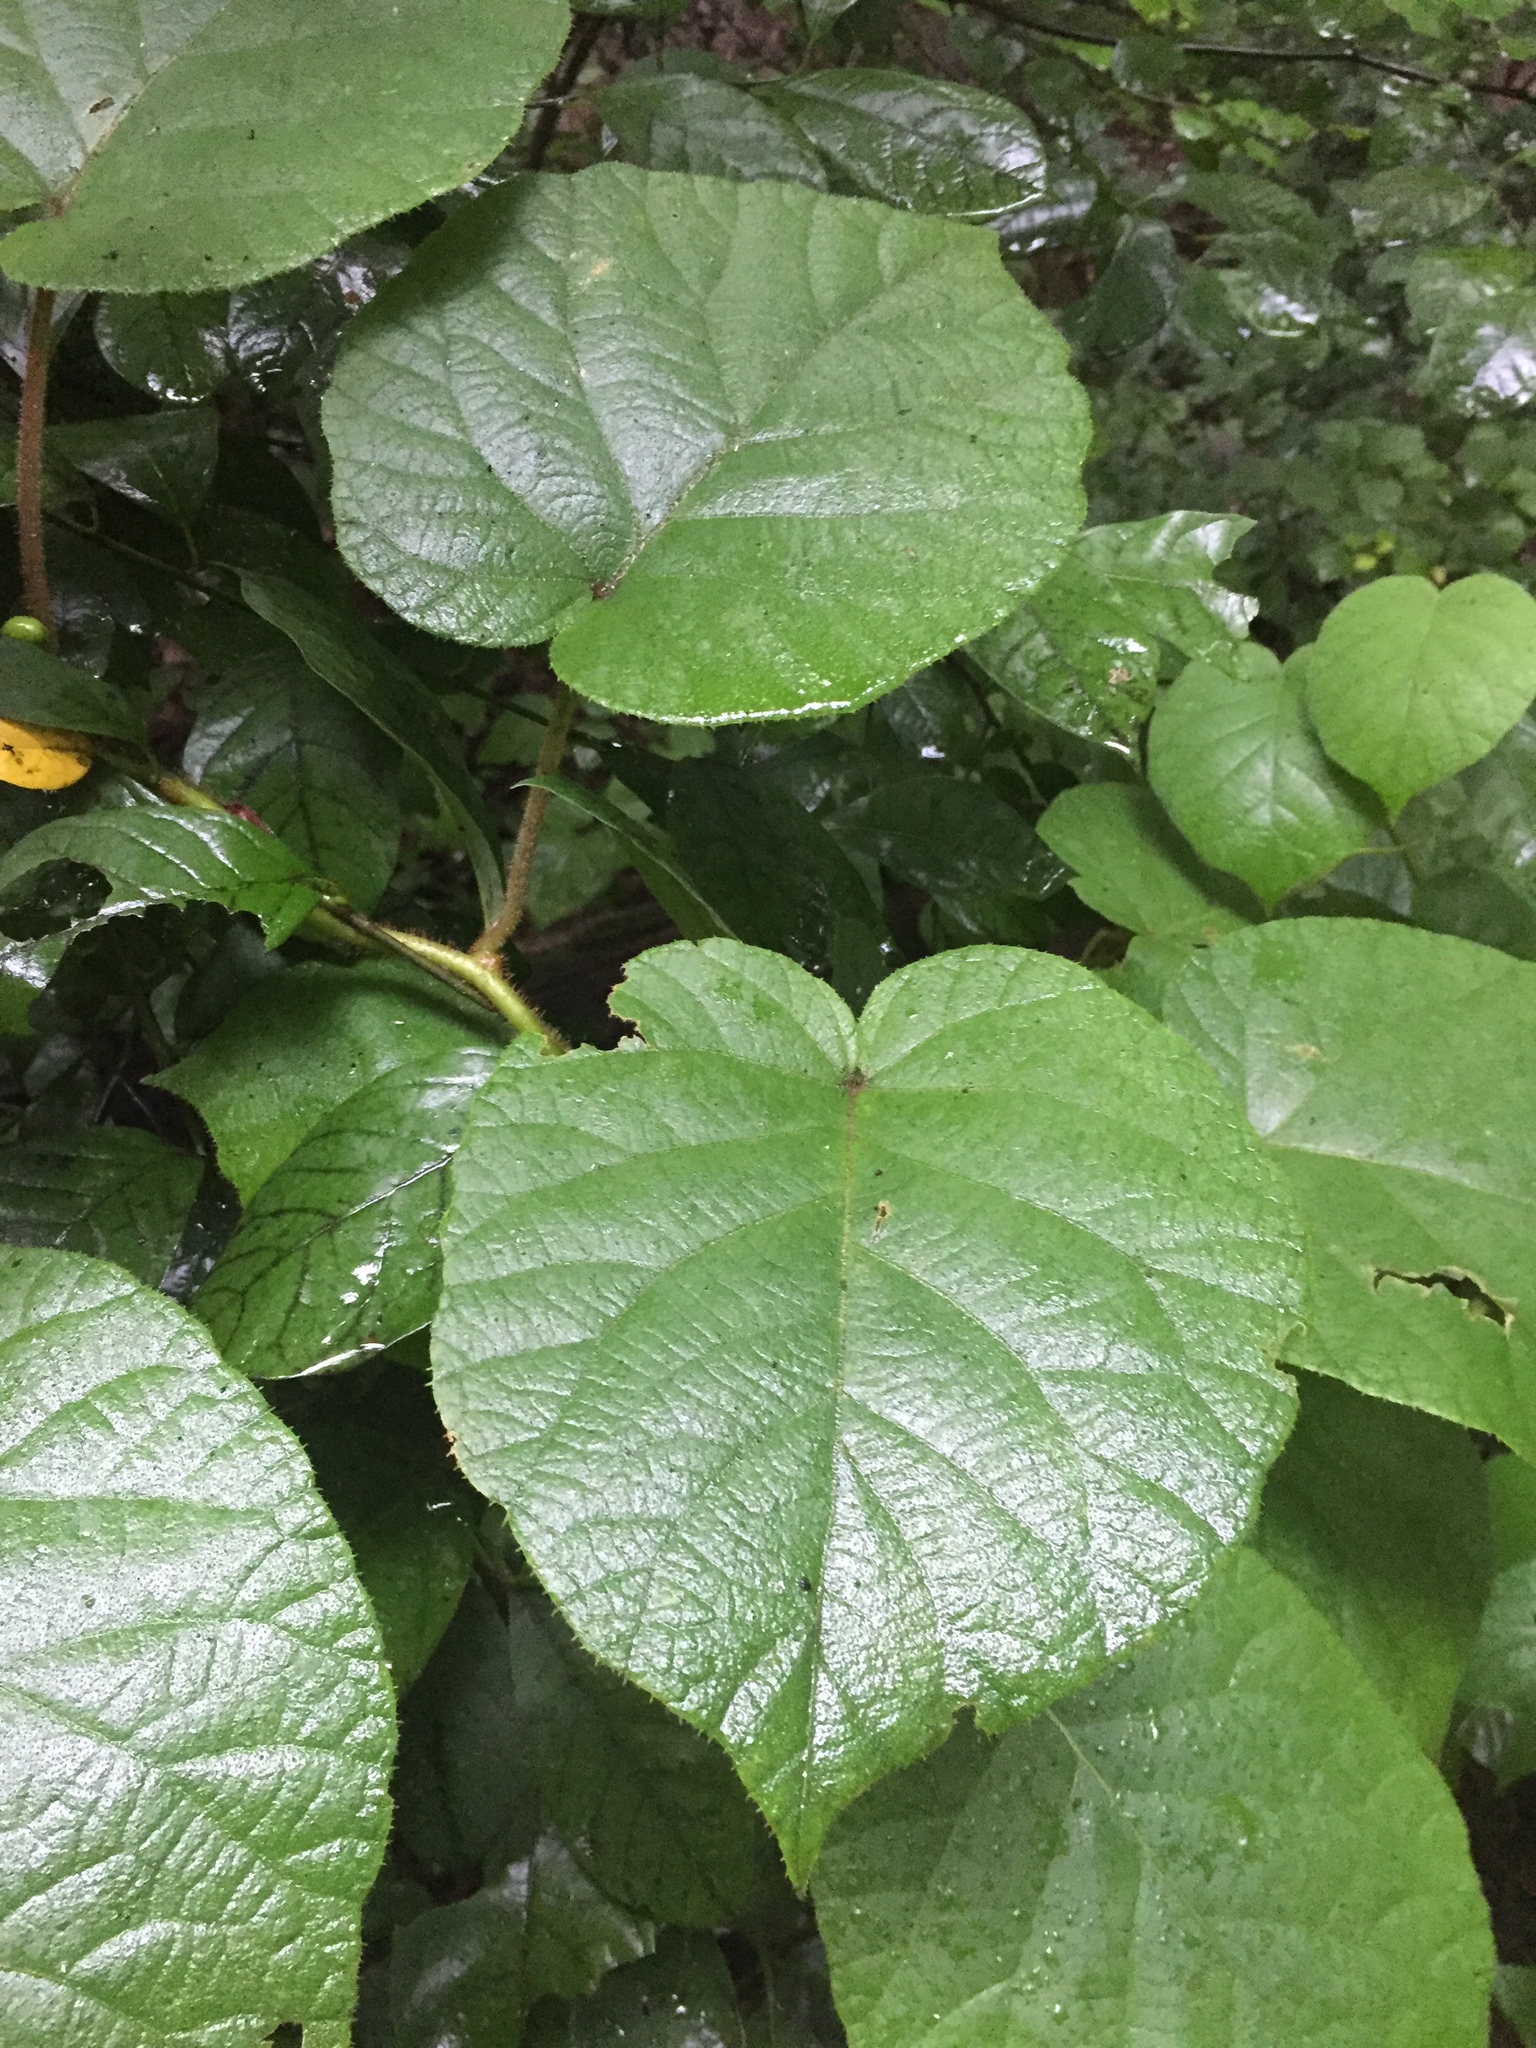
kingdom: Plantae
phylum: Tracheophyta
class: Magnoliopsida
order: Ericales
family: Actinidiaceae
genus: Actinidia
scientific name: Actinidia chinensis
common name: Kiwi
